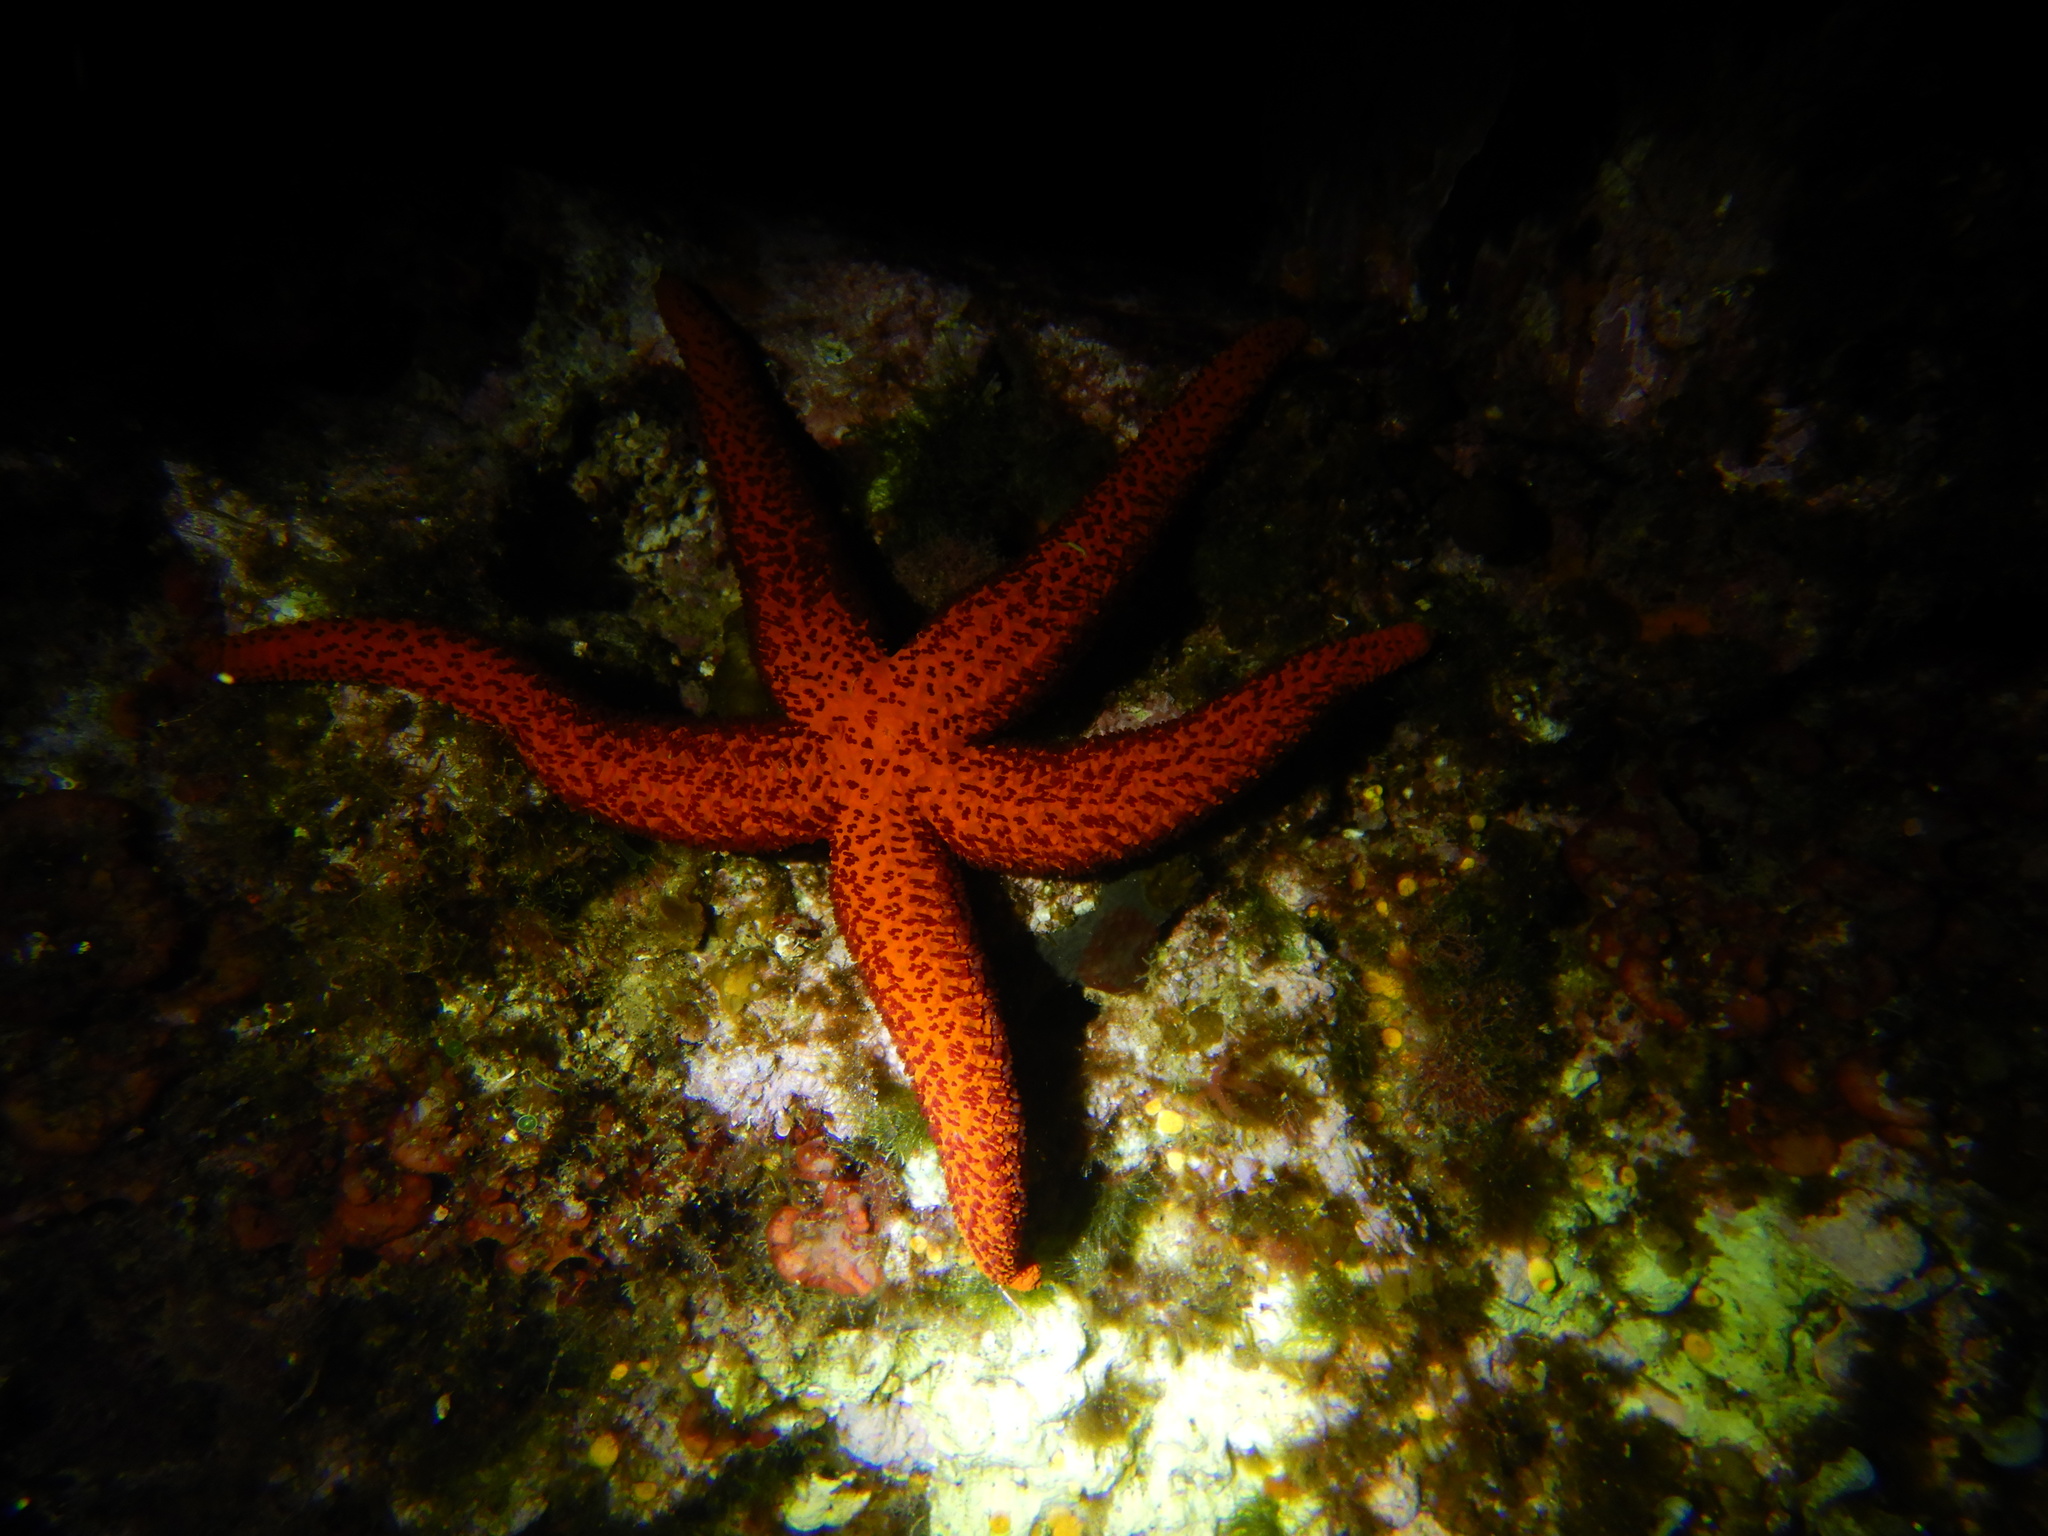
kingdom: Animalia
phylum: Echinodermata
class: Asteroidea
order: Spinulosida
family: Echinasteridae
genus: Echinaster
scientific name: Echinaster sepositus
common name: Red starfish
